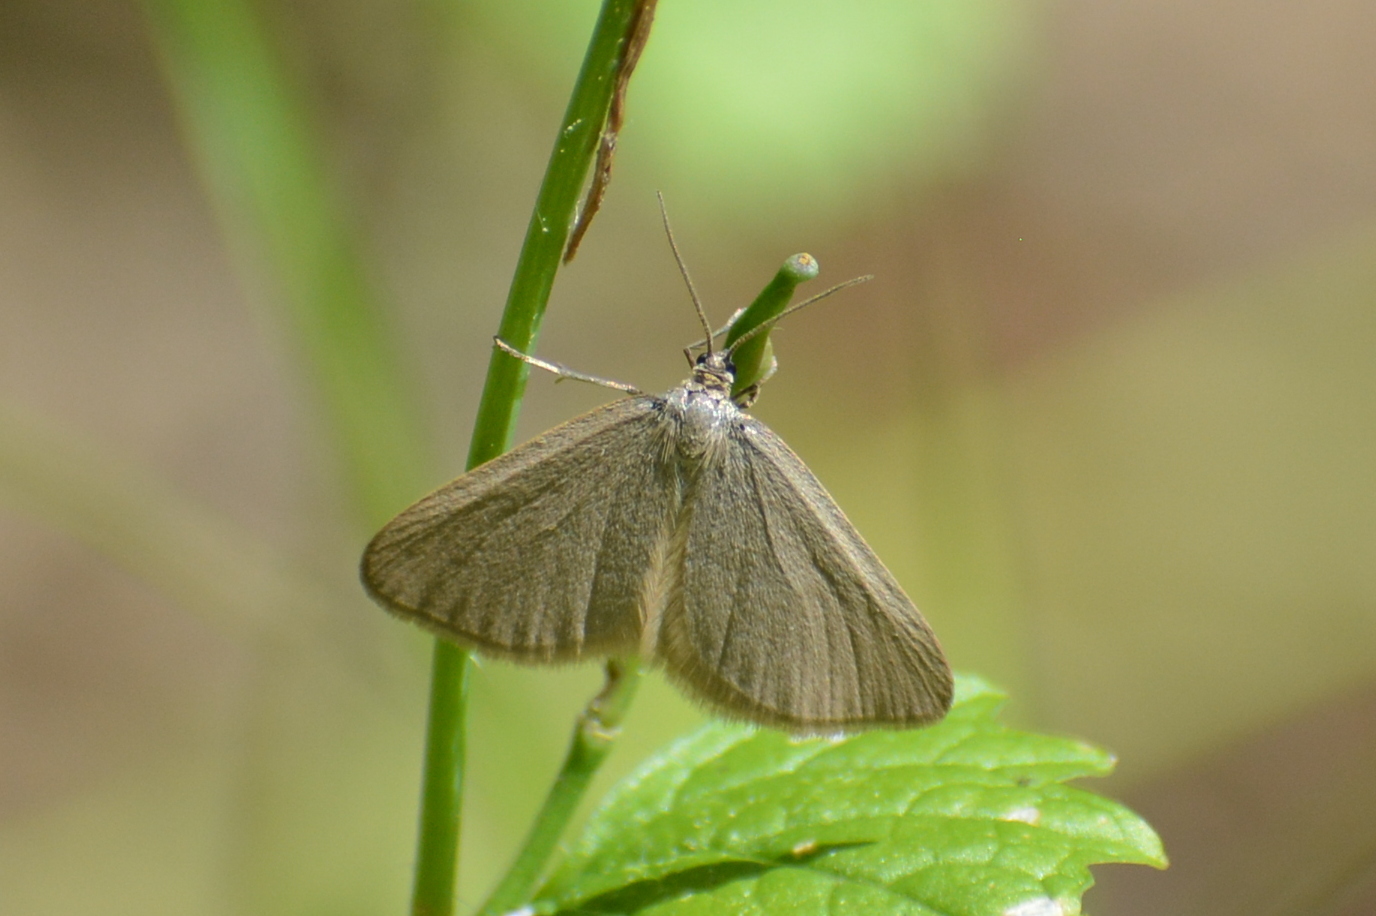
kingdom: Animalia
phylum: Arthropoda
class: Insecta
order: Lepidoptera
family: Geometridae
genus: Minoa
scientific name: Minoa murinata
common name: Drab looper
